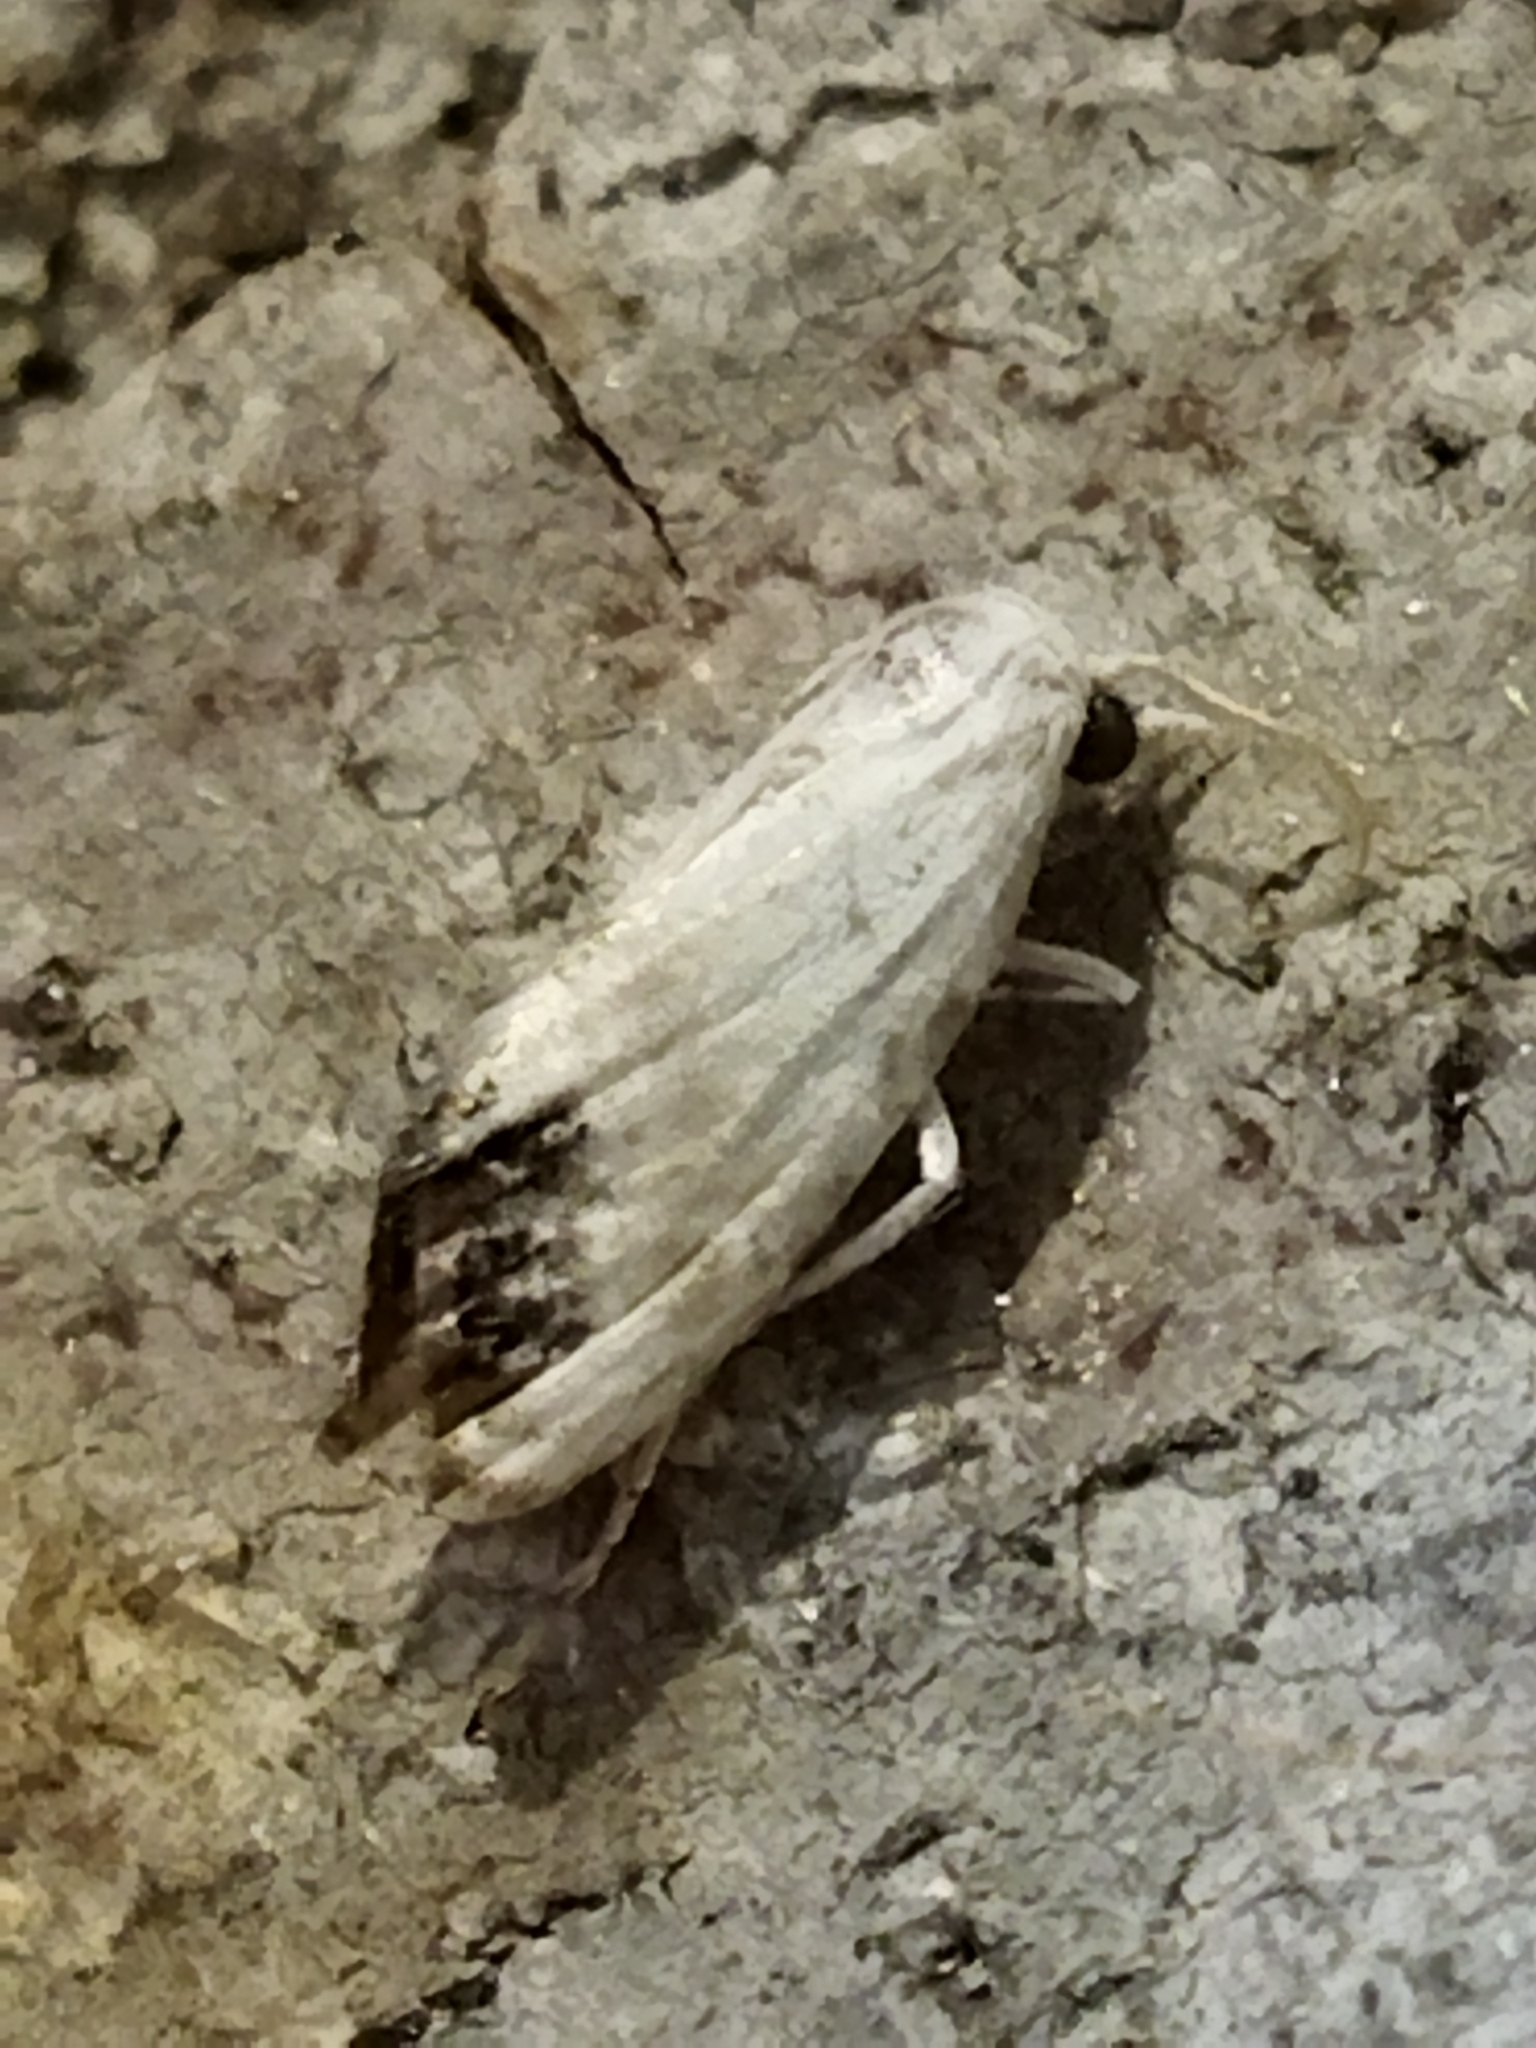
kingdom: Animalia
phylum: Arthropoda
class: Insecta
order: Lepidoptera
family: Nolidae
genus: Nola
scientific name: Nola chlamitulalis
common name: Jersey black arches
